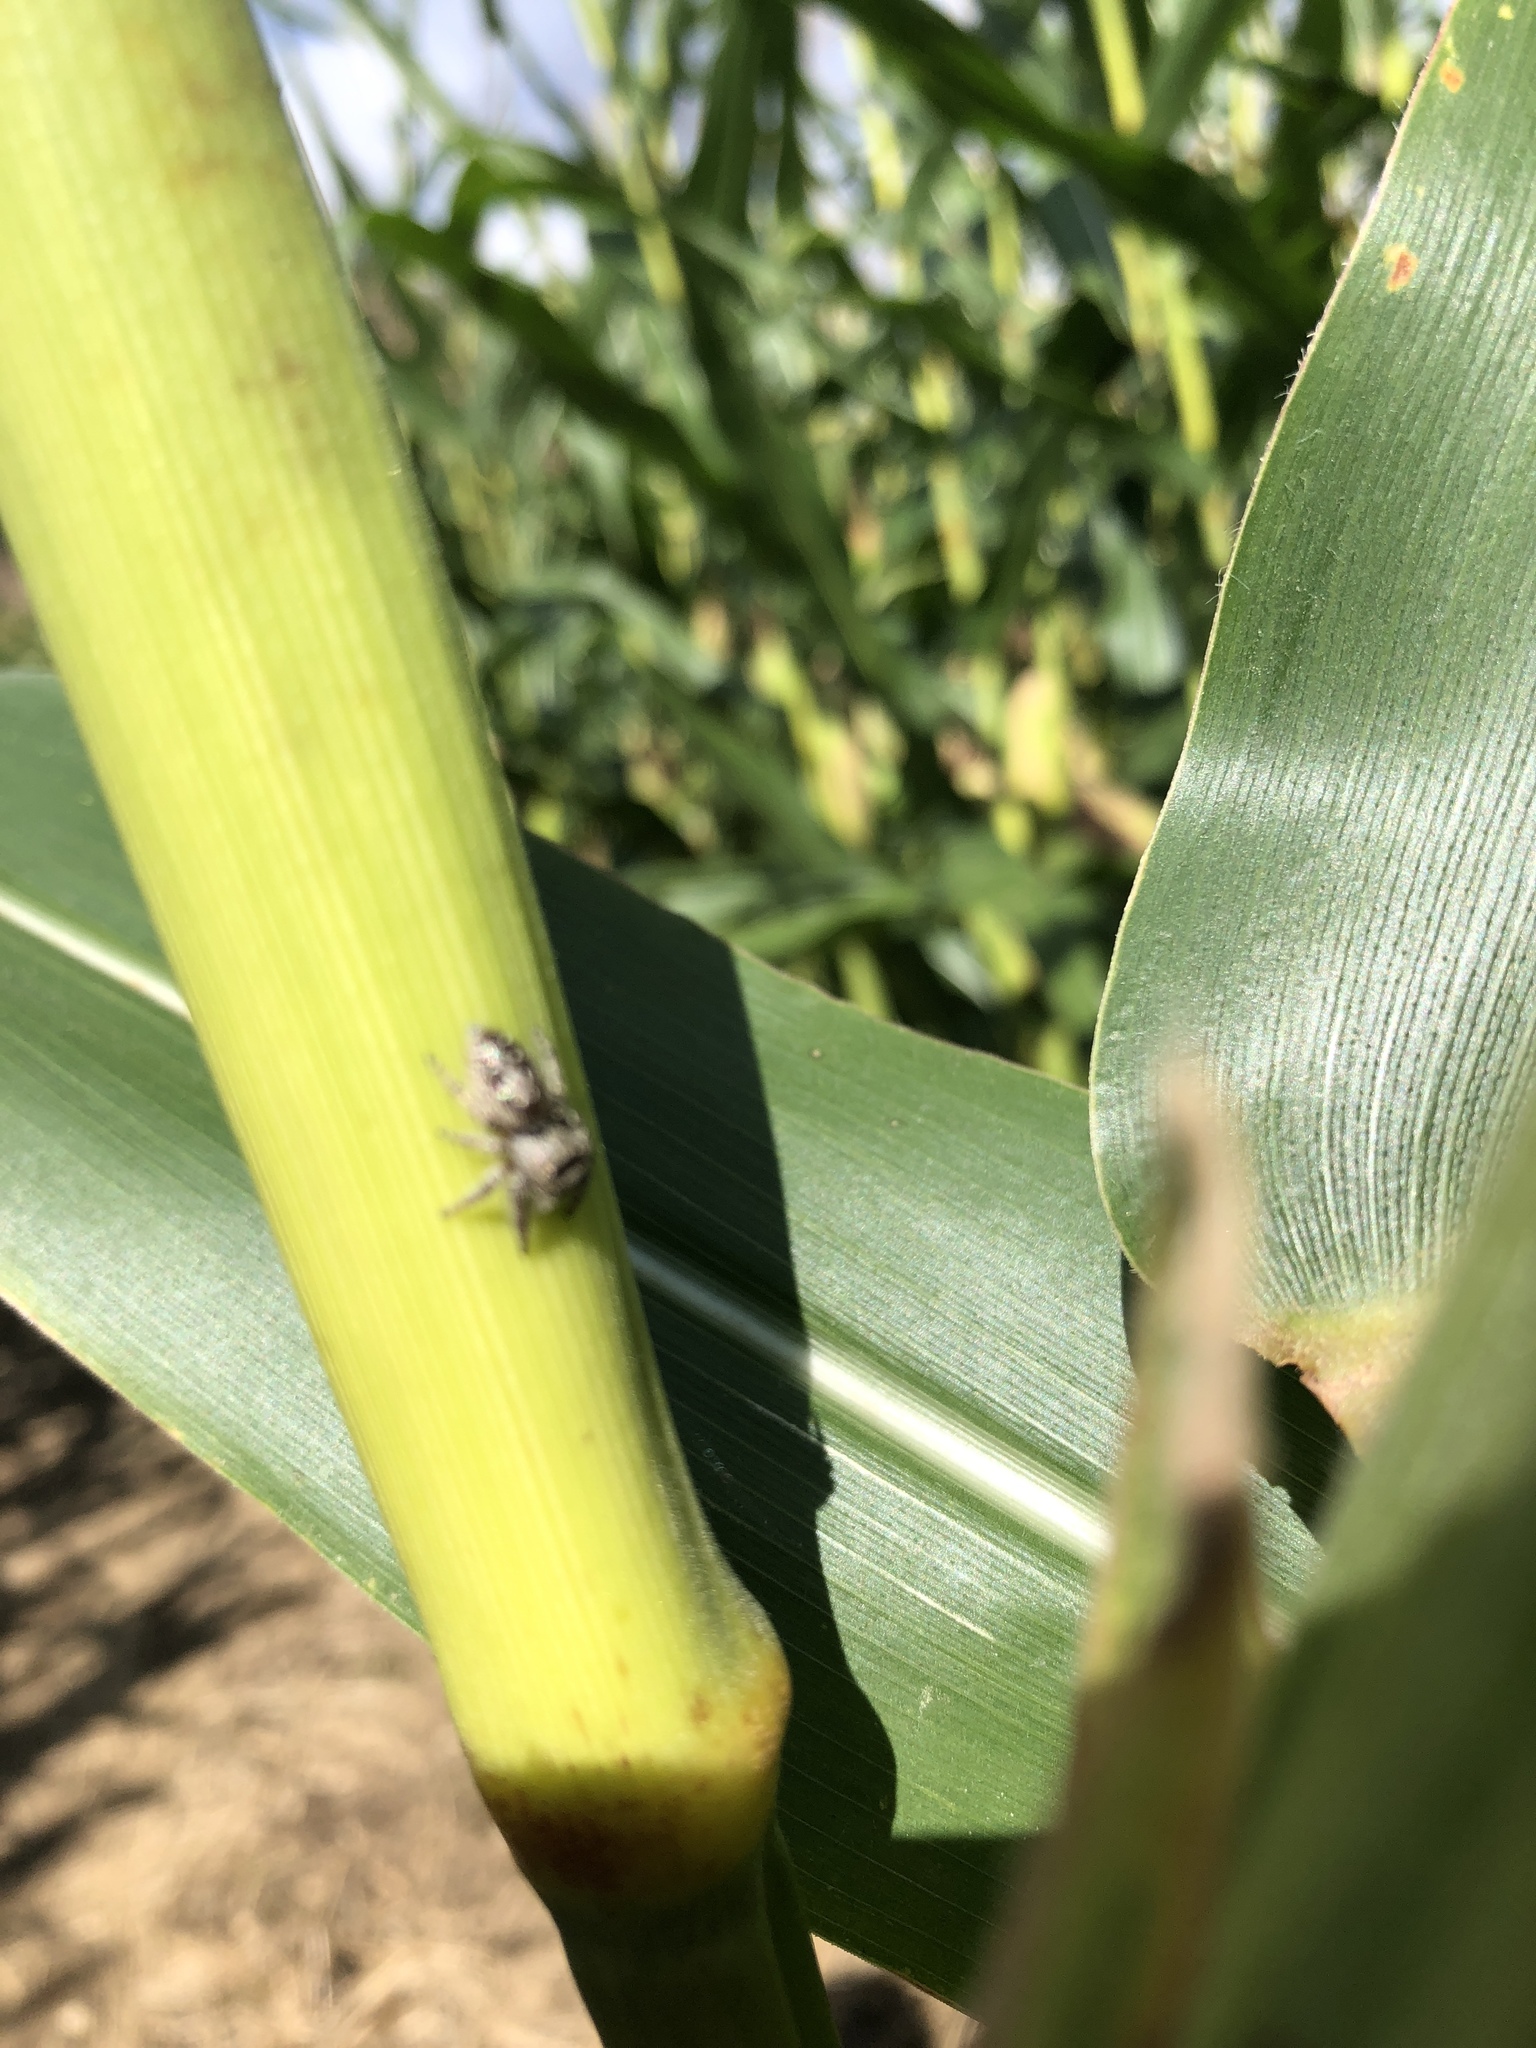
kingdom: Animalia
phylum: Arthropoda
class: Arachnida
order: Araneae
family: Salticidae
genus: Eris
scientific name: Eris militaris
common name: Bronze jumper
